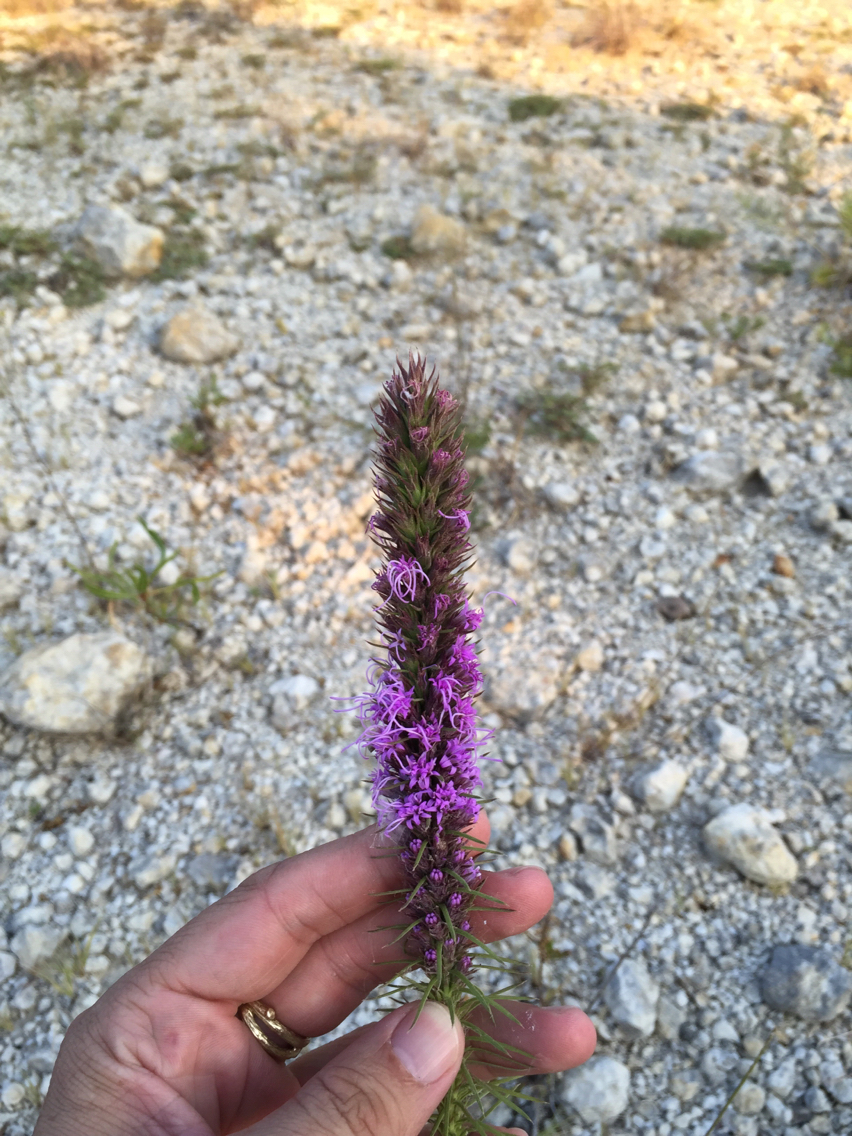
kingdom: Plantae
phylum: Tracheophyta
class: Magnoliopsida
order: Asterales
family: Asteraceae
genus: Liatris
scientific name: Liatris punctata
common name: Dotted gayfeather
